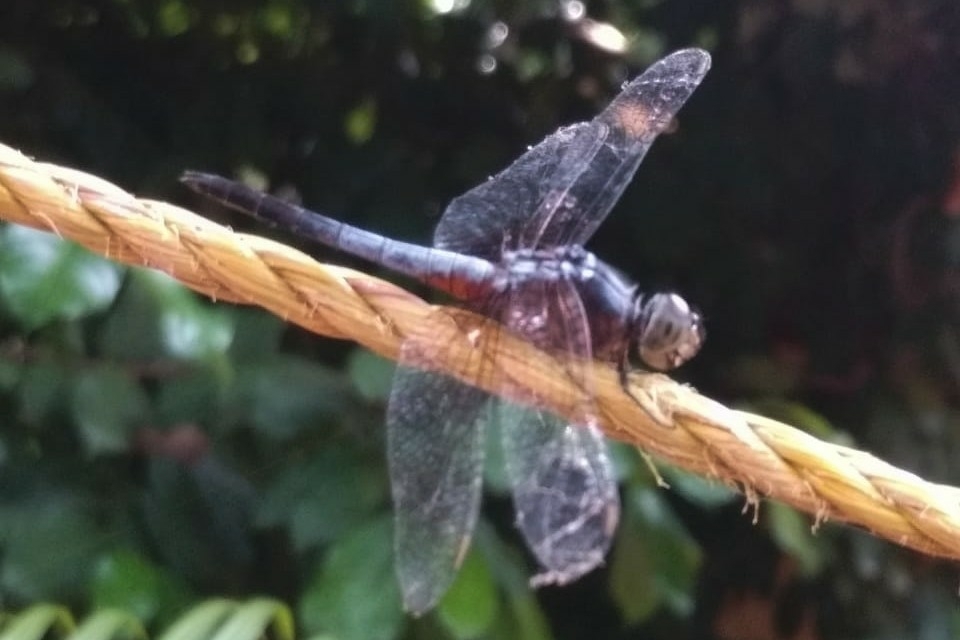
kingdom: Animalia
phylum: Arthropoda
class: Insecta
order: Odonata
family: Libellulidae
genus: Brachydiplax
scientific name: Brachydiplax chalybea
